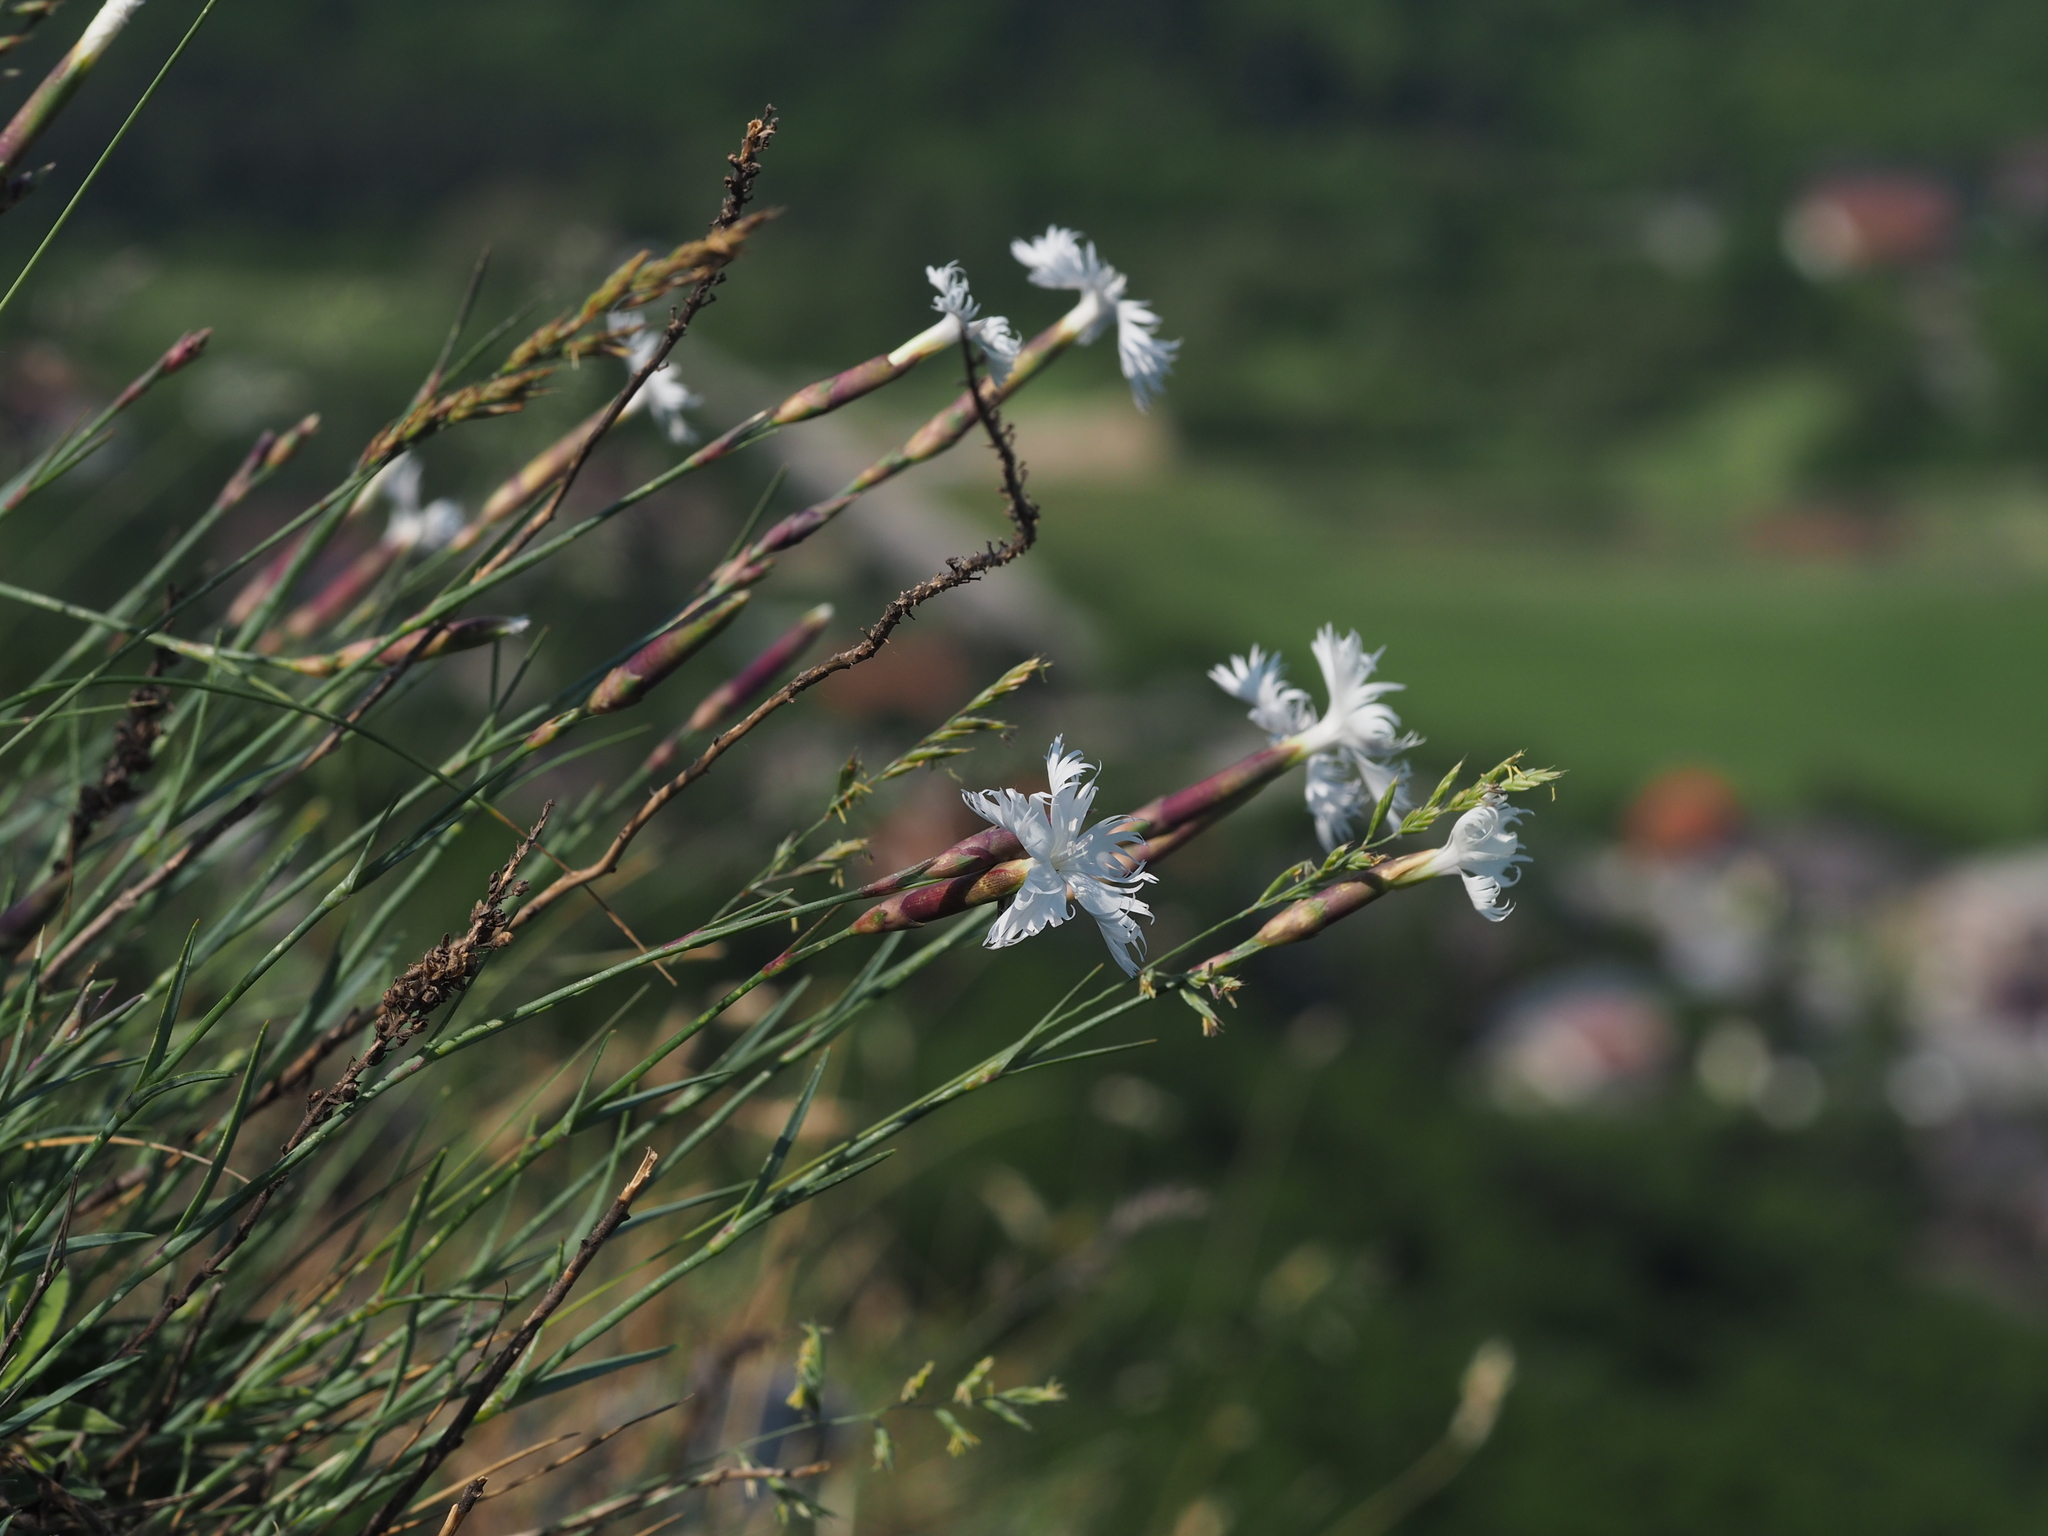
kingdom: Plantae
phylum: Tracheophyta
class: Magnoliopsida
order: Caryophyllales
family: Caryophyllaceae
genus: Dianthus
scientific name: Dianthus praecox
